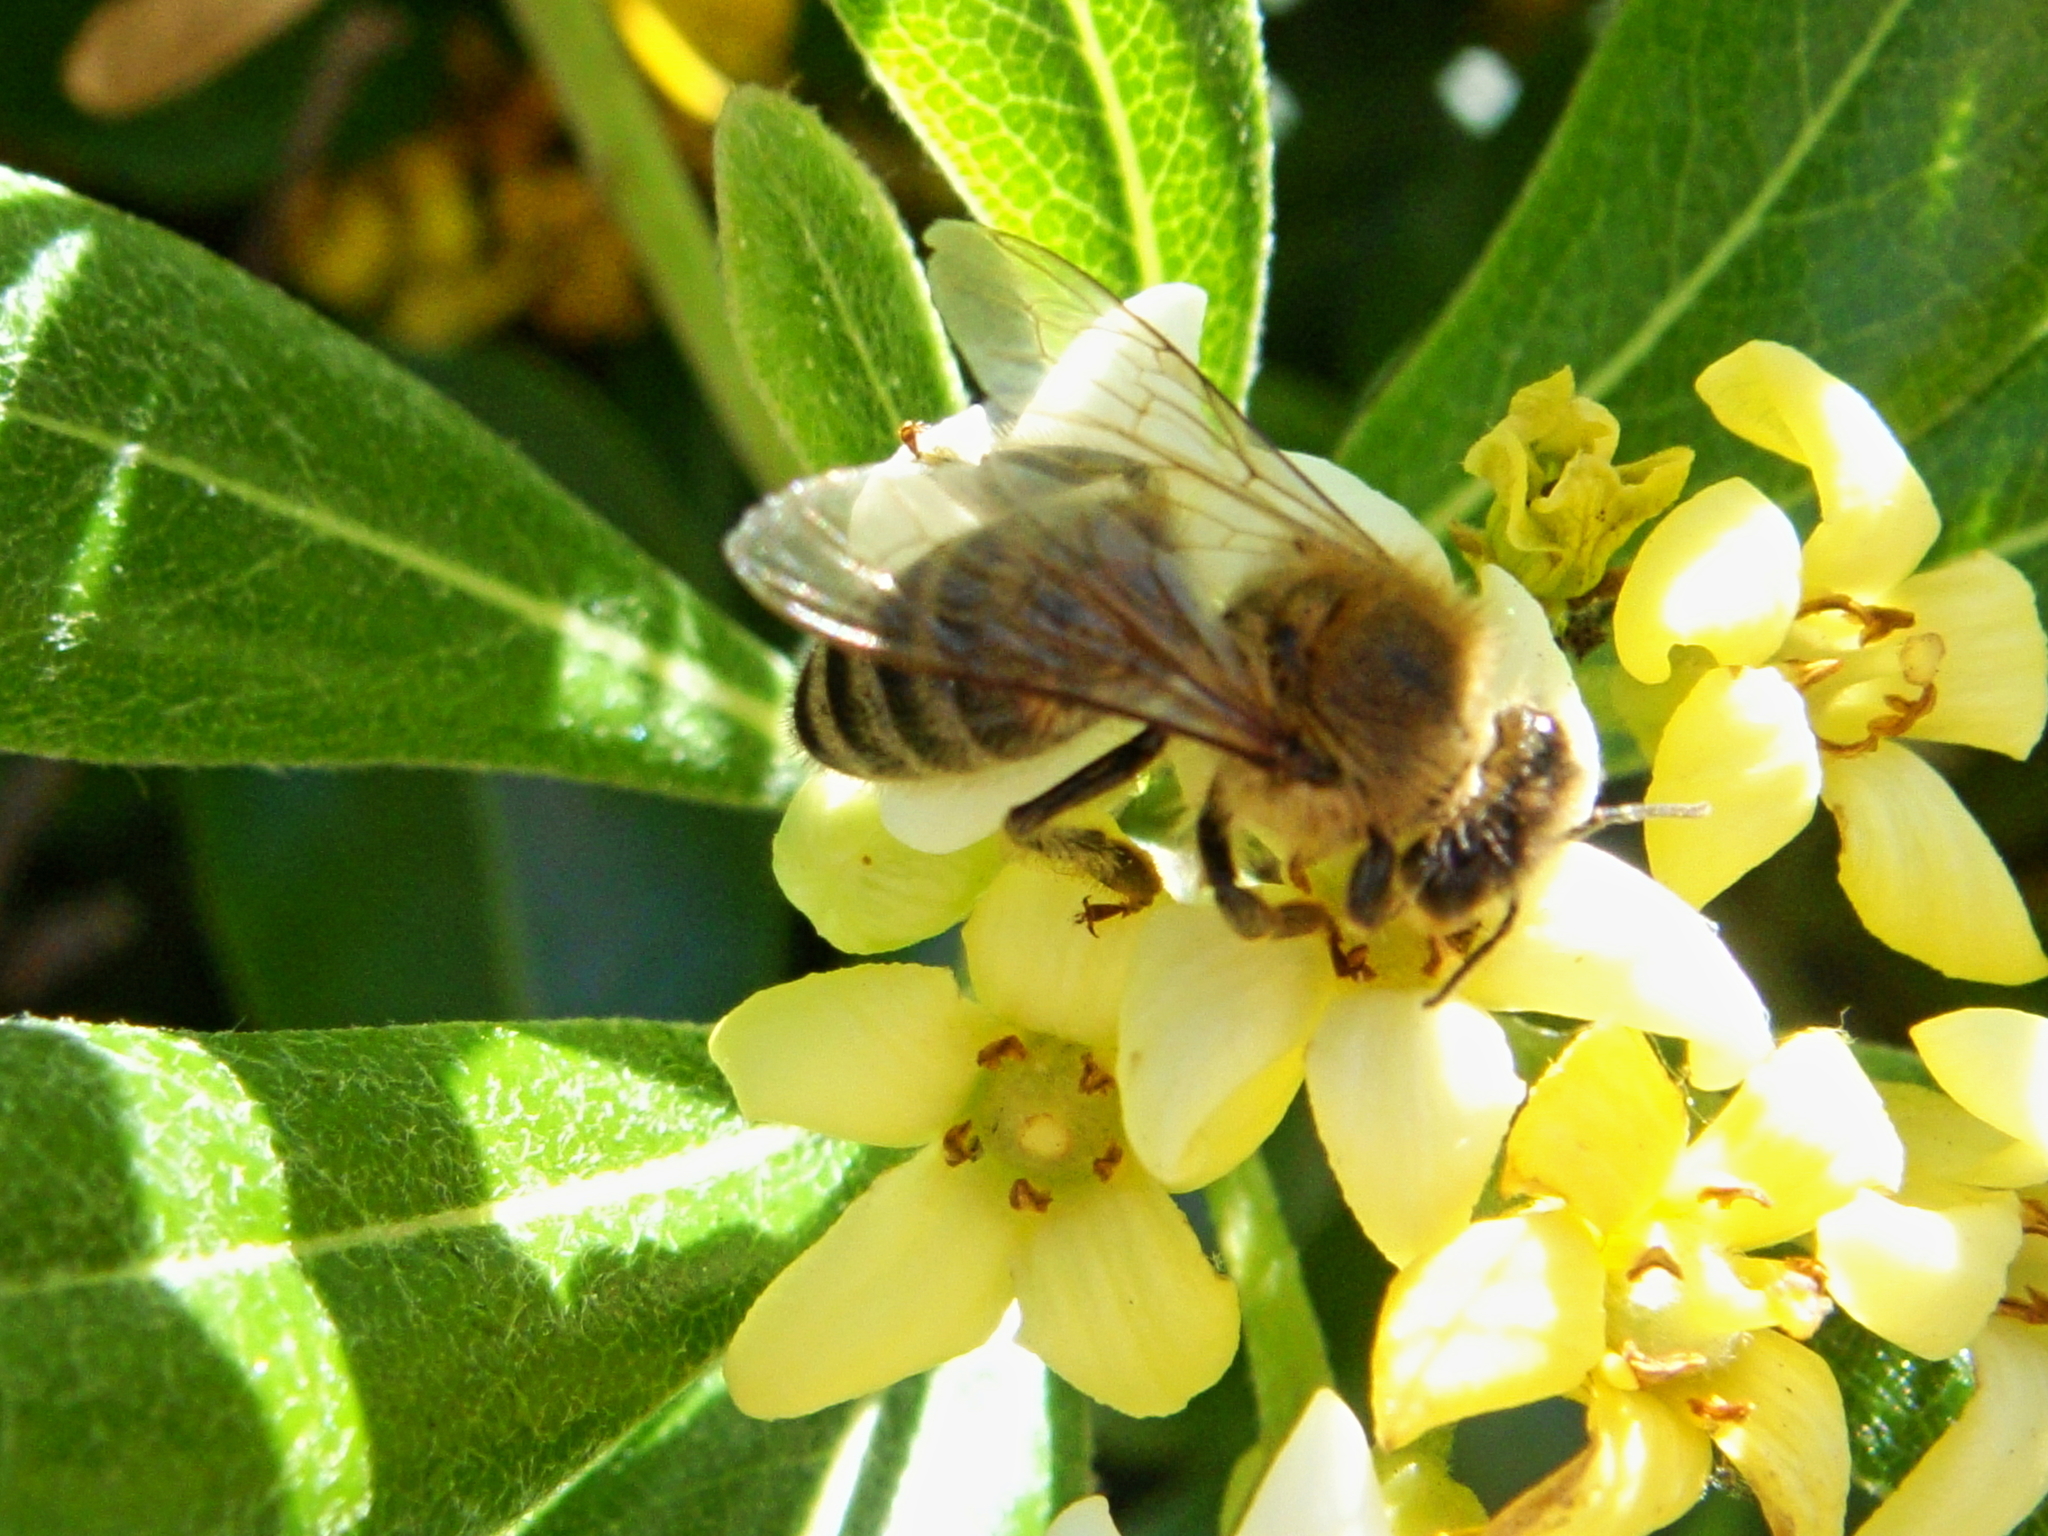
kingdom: Animalia
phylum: Arthropoda
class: Insecta
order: Hymenoptera
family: Apidae
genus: Apis
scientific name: Apis mellifera
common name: Honey bee
